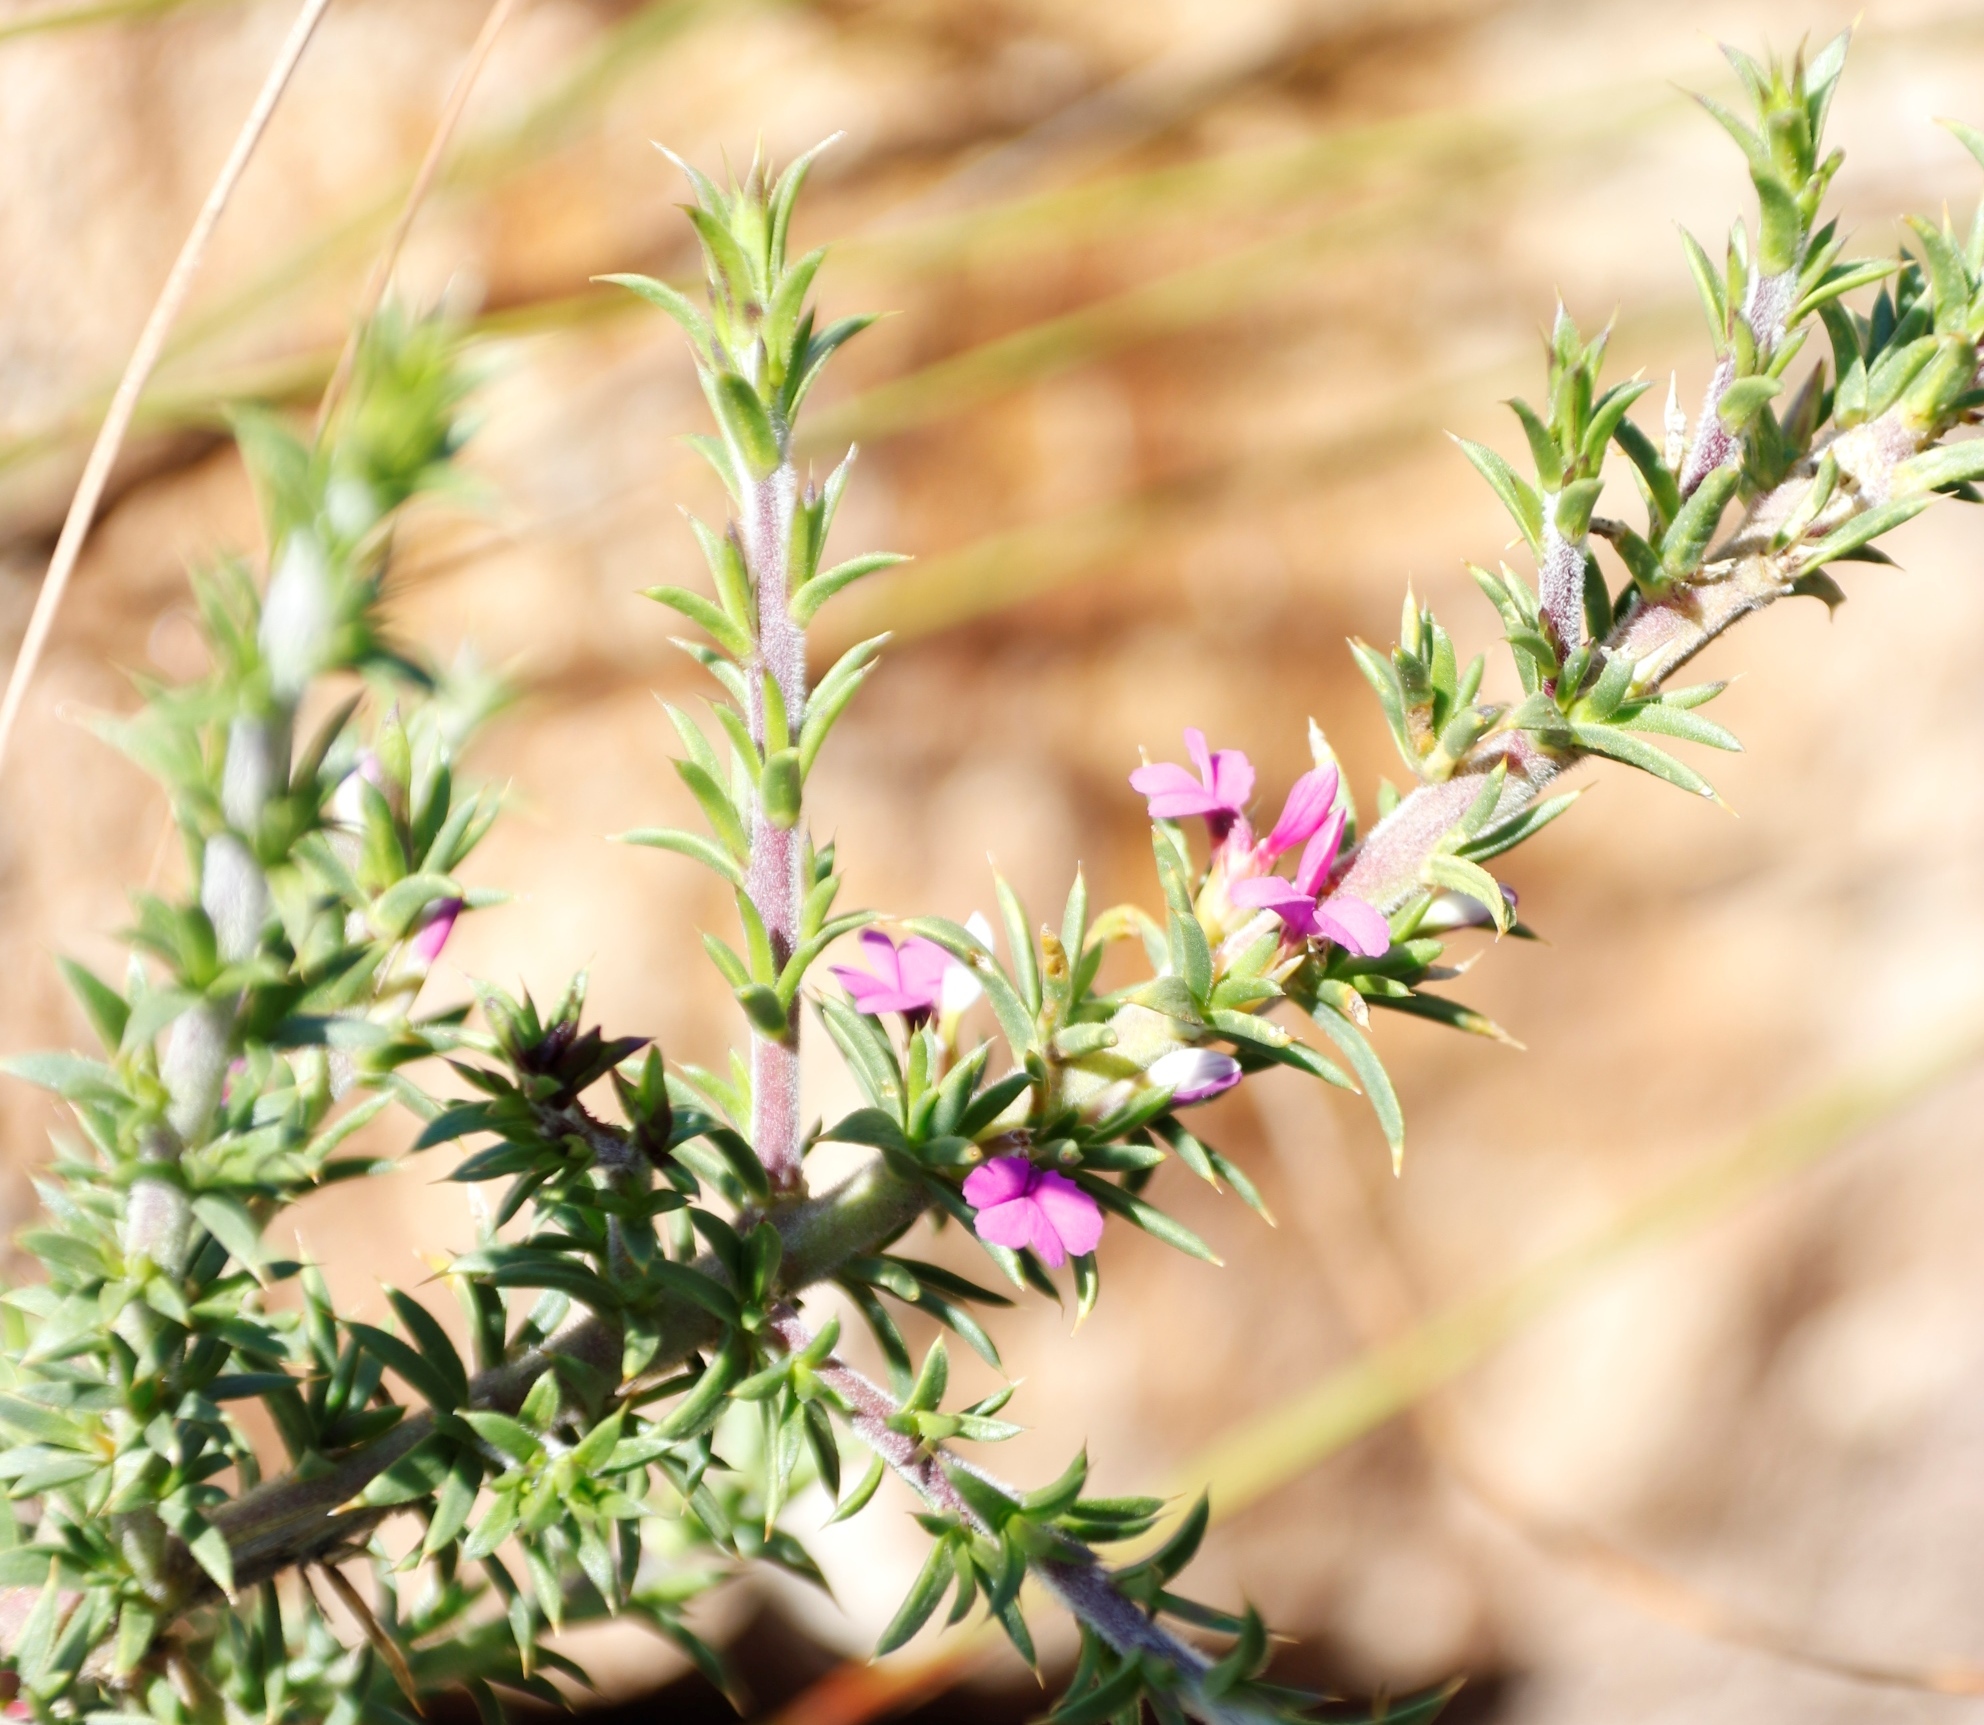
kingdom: Plantae
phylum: Tracheophyta
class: Magnoliopsida
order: Fabales
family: Polygalaceae
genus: Muraltia
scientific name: Muraltia heisteria
